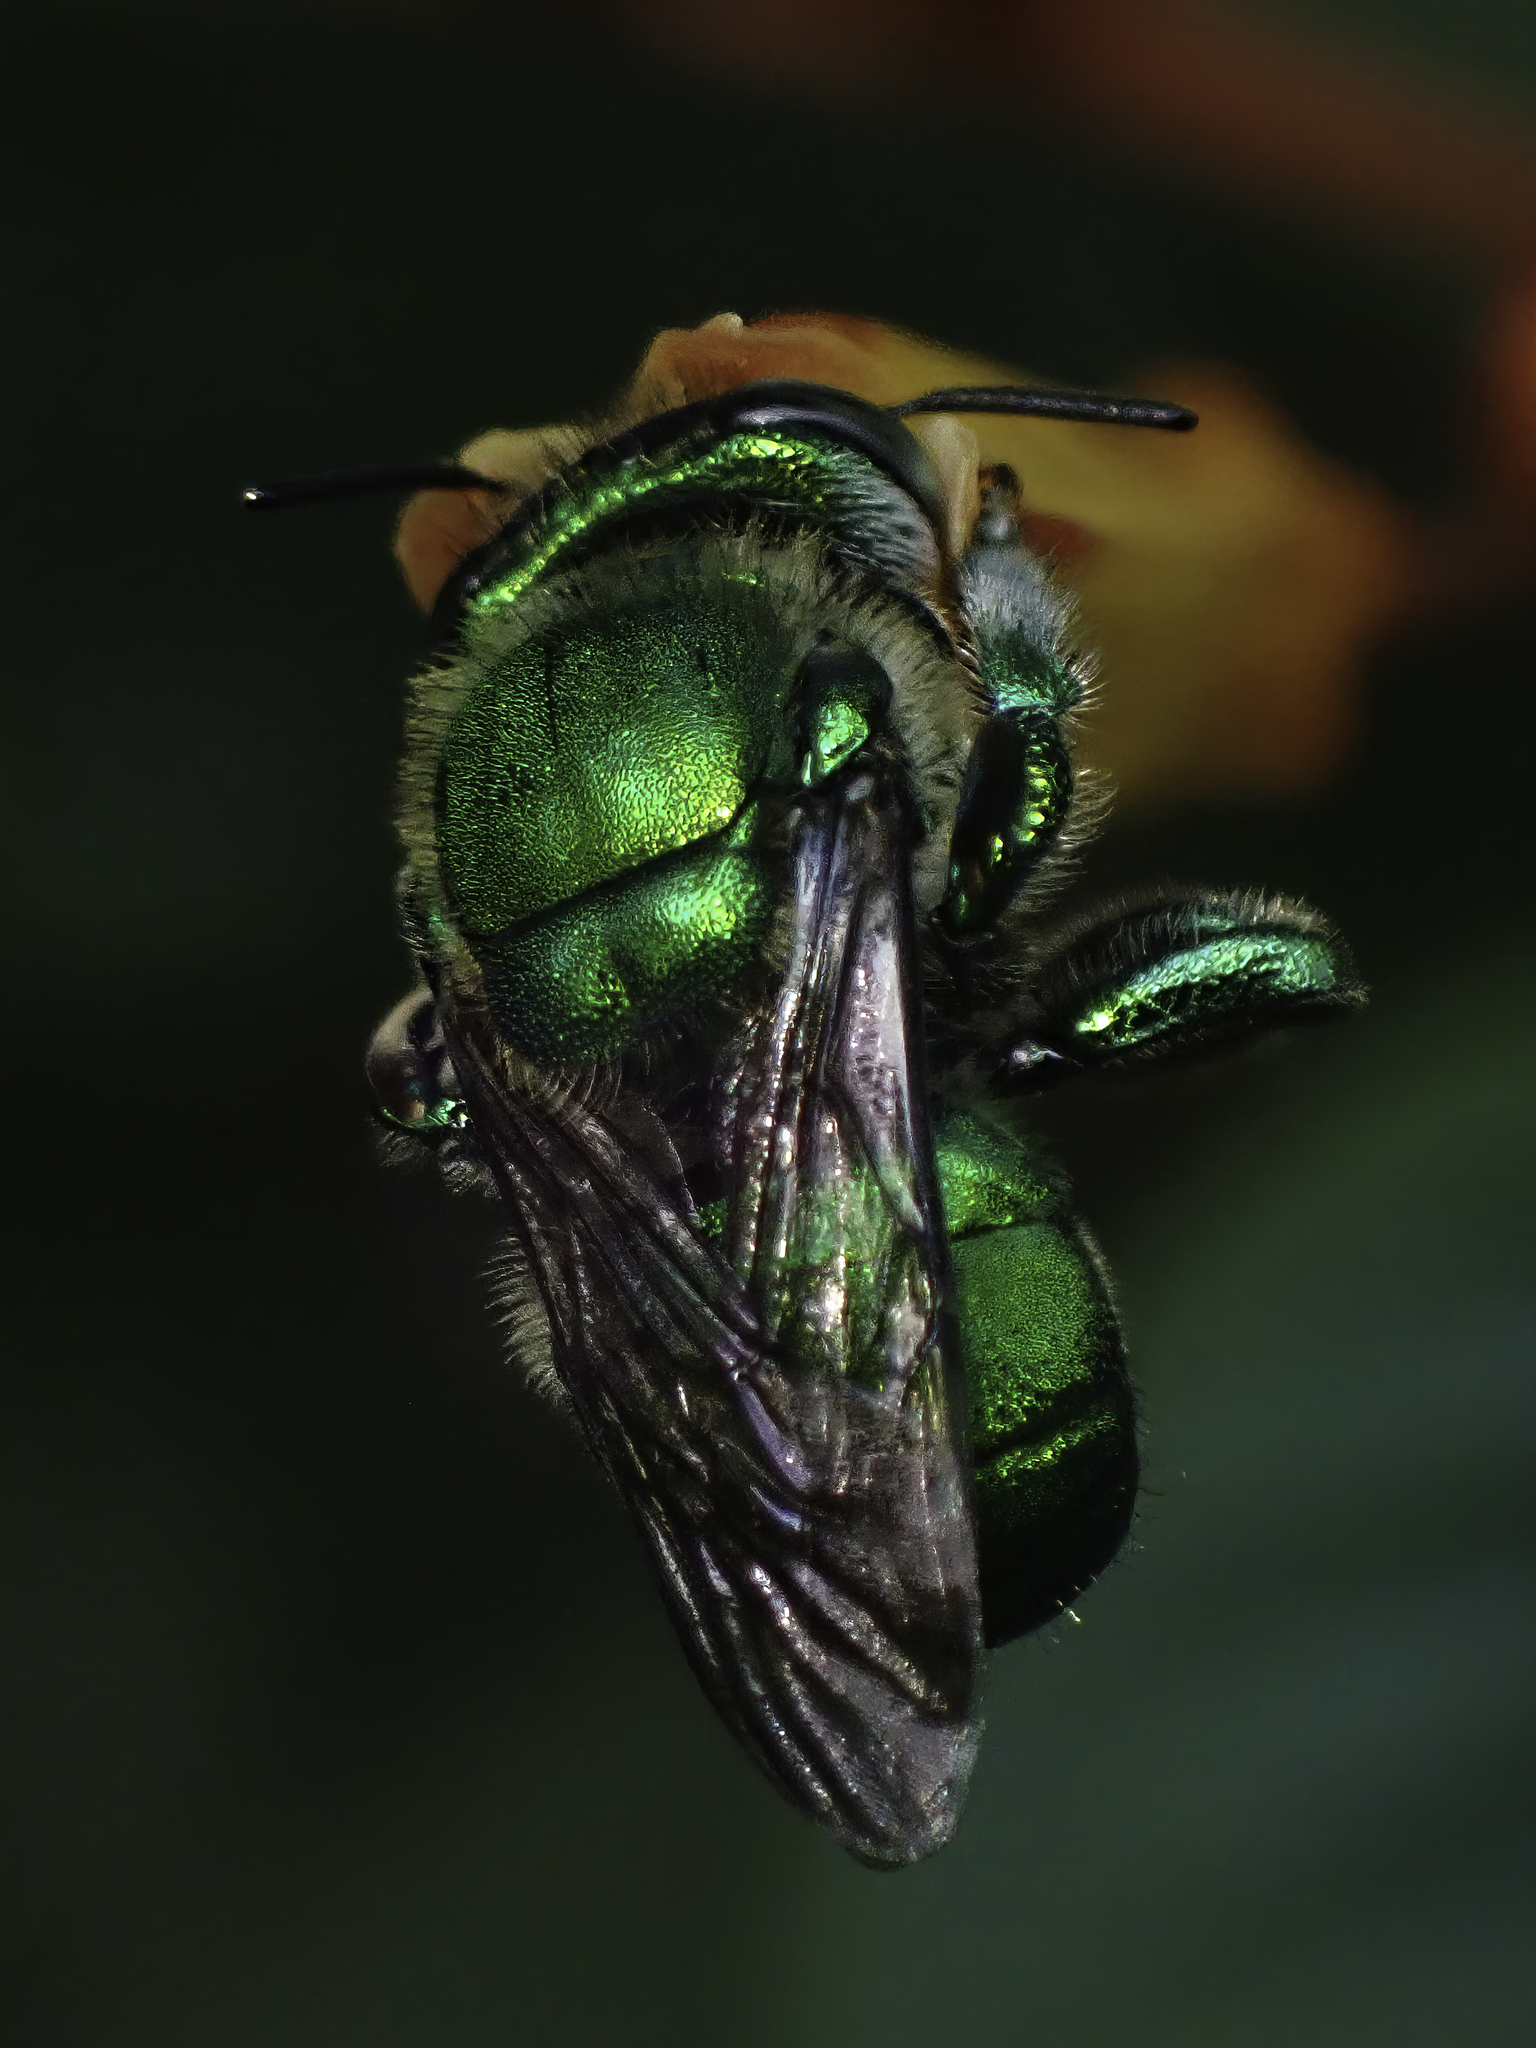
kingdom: Animalia
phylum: Arthropoda
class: Insecta
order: Hymenoptera
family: Apidae
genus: Euglossa
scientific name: Euglossa dilemma
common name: Green orchid bee
